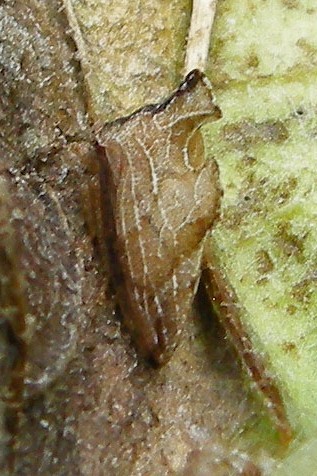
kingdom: Animalia
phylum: Arthropoda
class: Insecta
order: Hemiptera
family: Membracidae
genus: Entylia
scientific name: Entylia carinata
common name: Keeled treehopper
